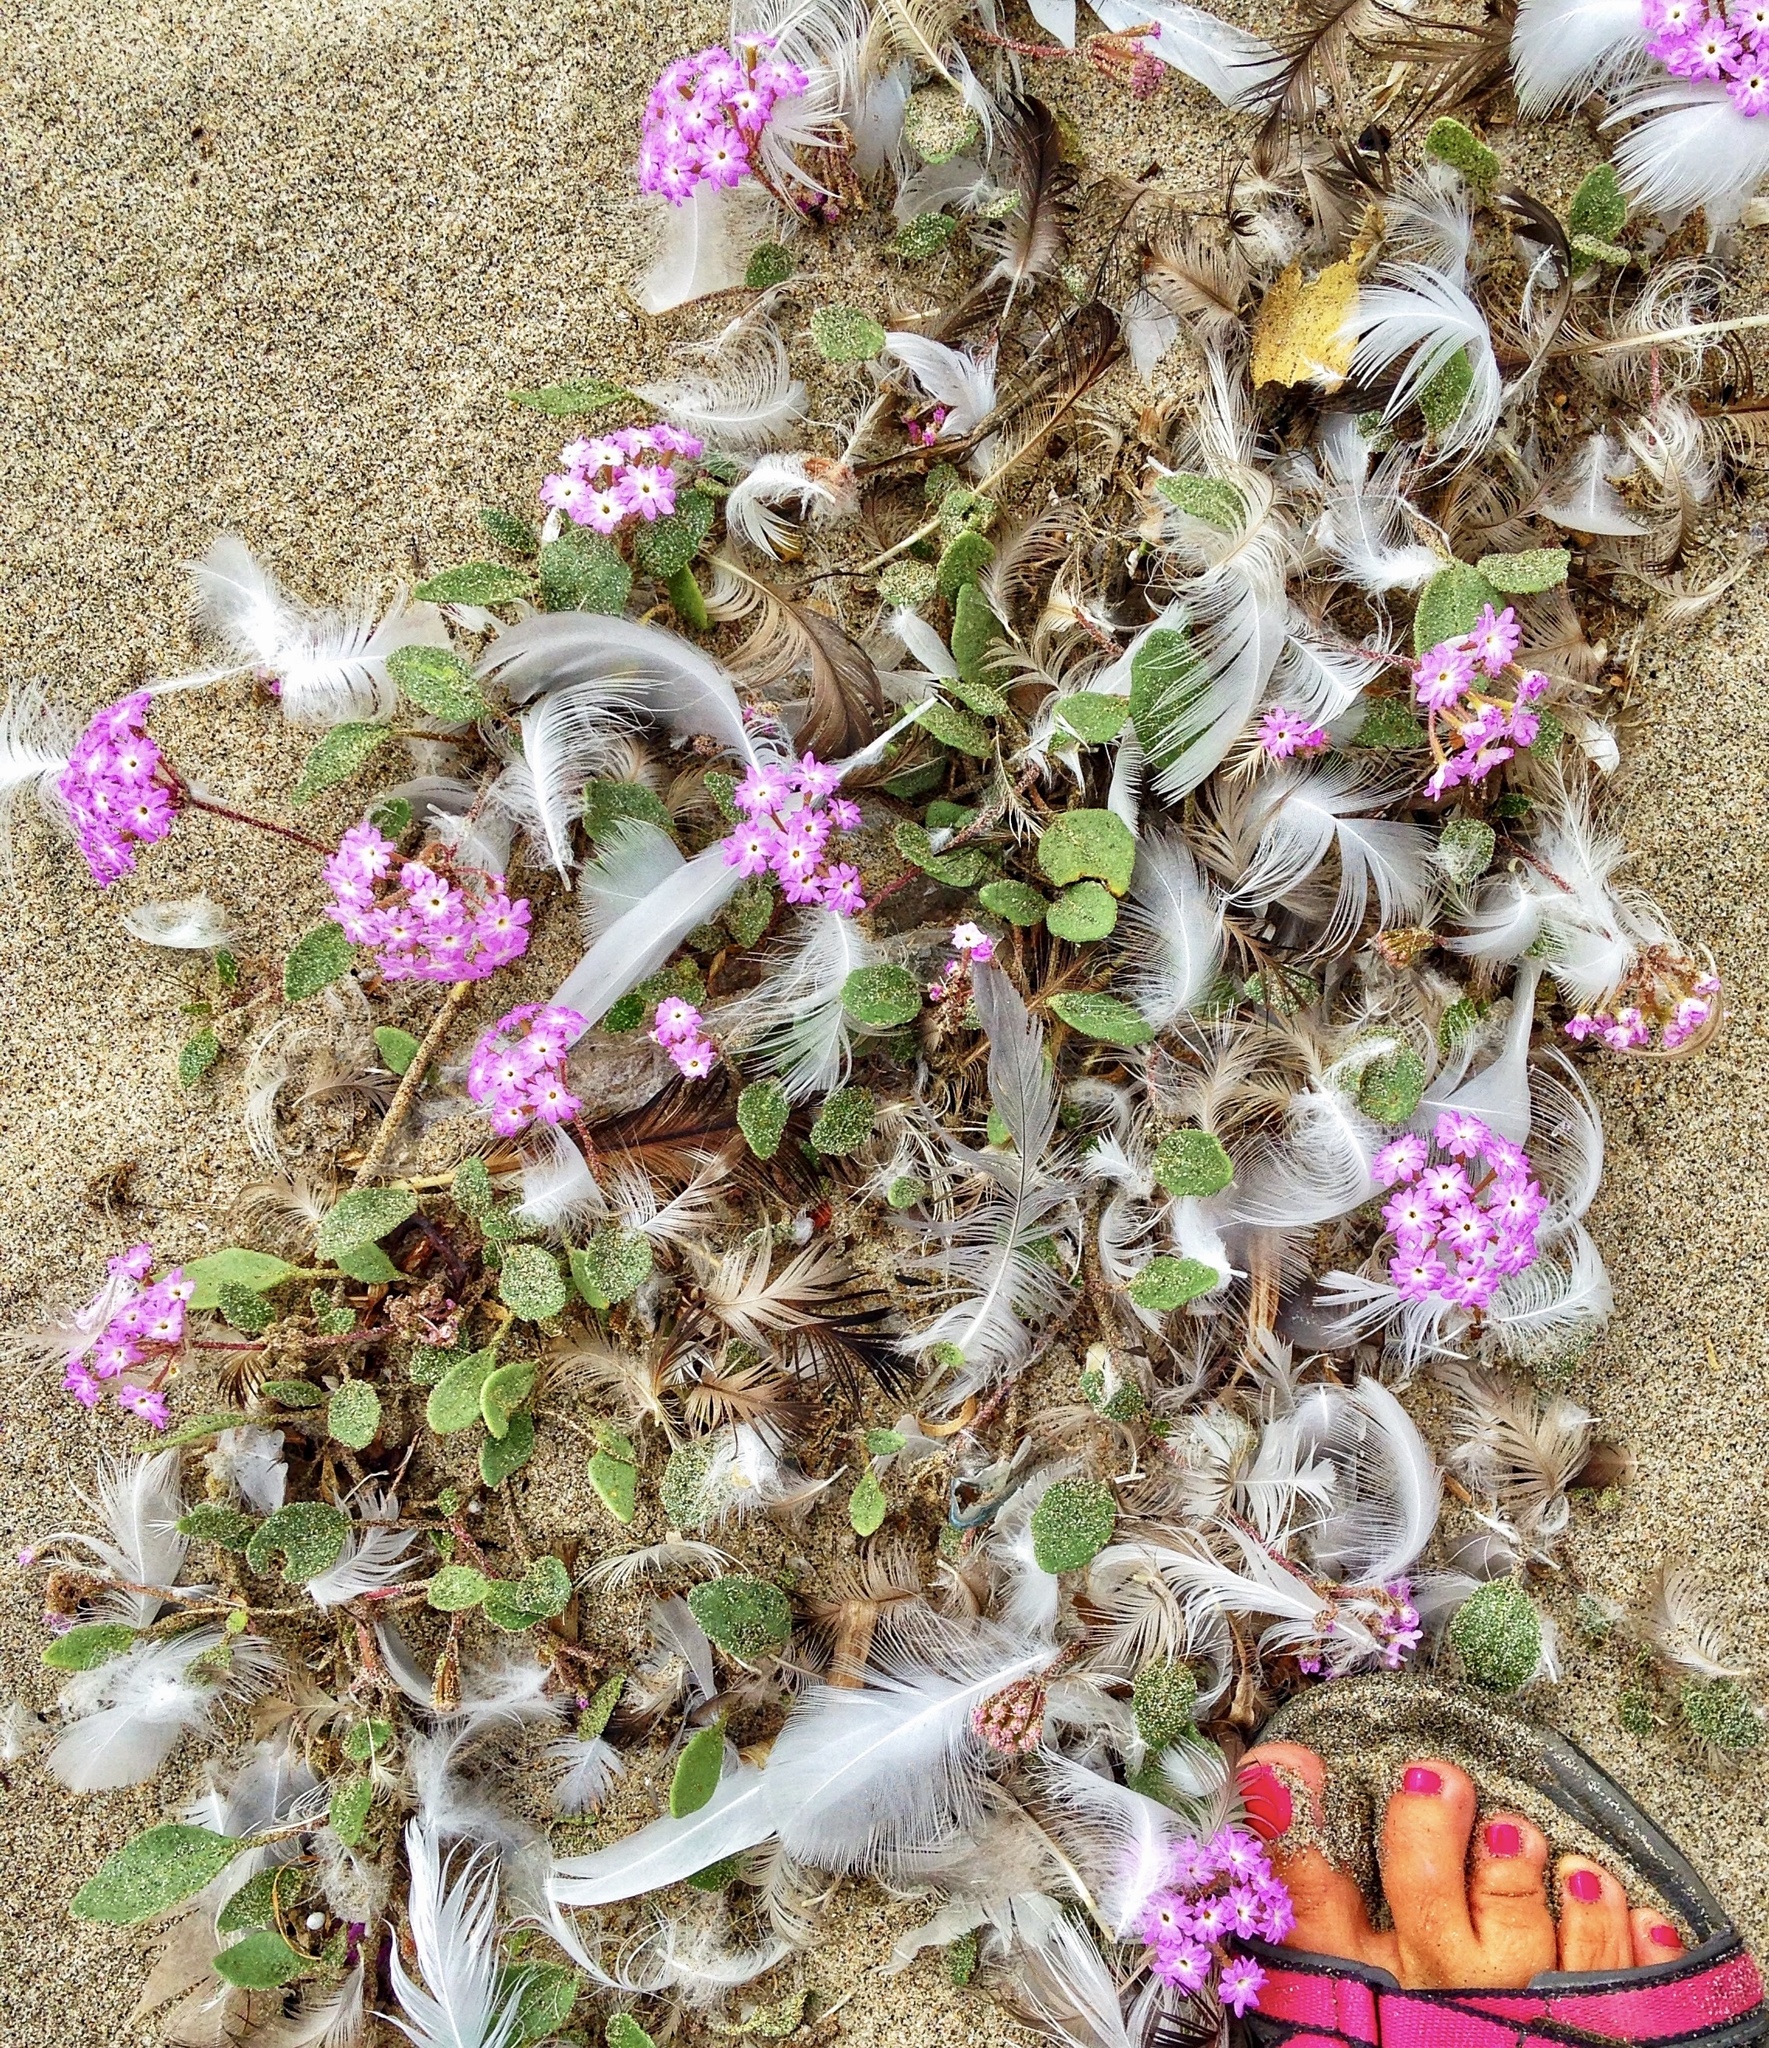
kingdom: Plantae
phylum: Tracheophyta
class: Magnoliopsida
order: Caryophyllales
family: Nyctaginaceae
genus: Abronia
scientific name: Abronia umbellata
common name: Sand-verbena
